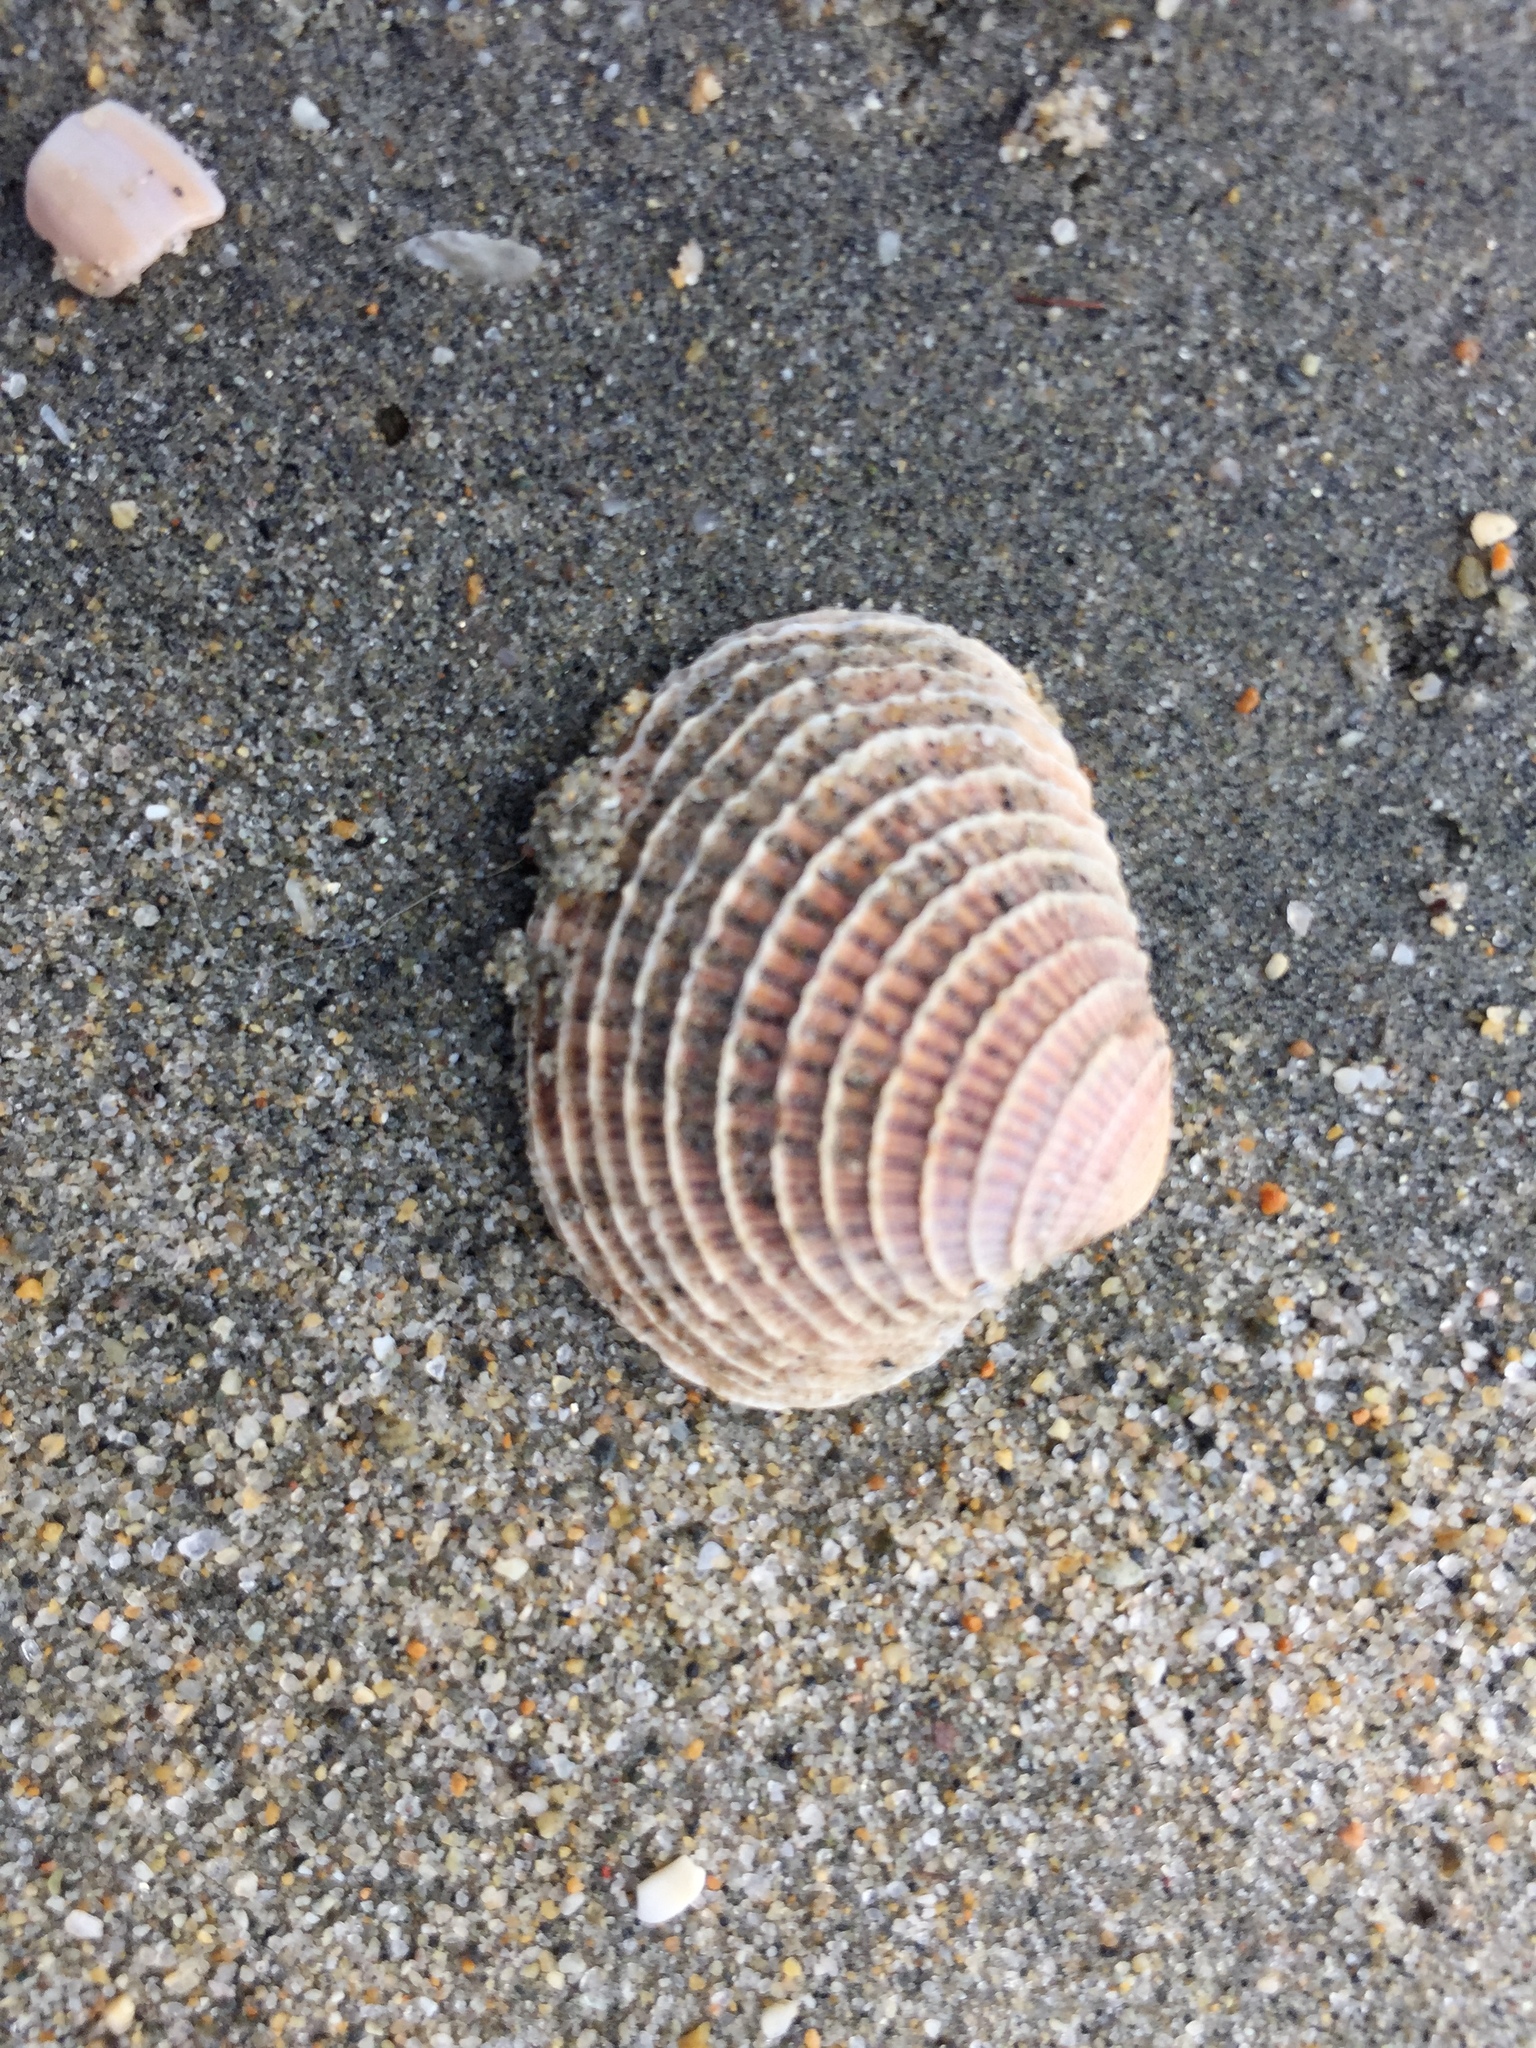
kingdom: Animalia
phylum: Mollusca
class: Bivalvia
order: Venerida
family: Veneridae
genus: Chione
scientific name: Chione californiensis
